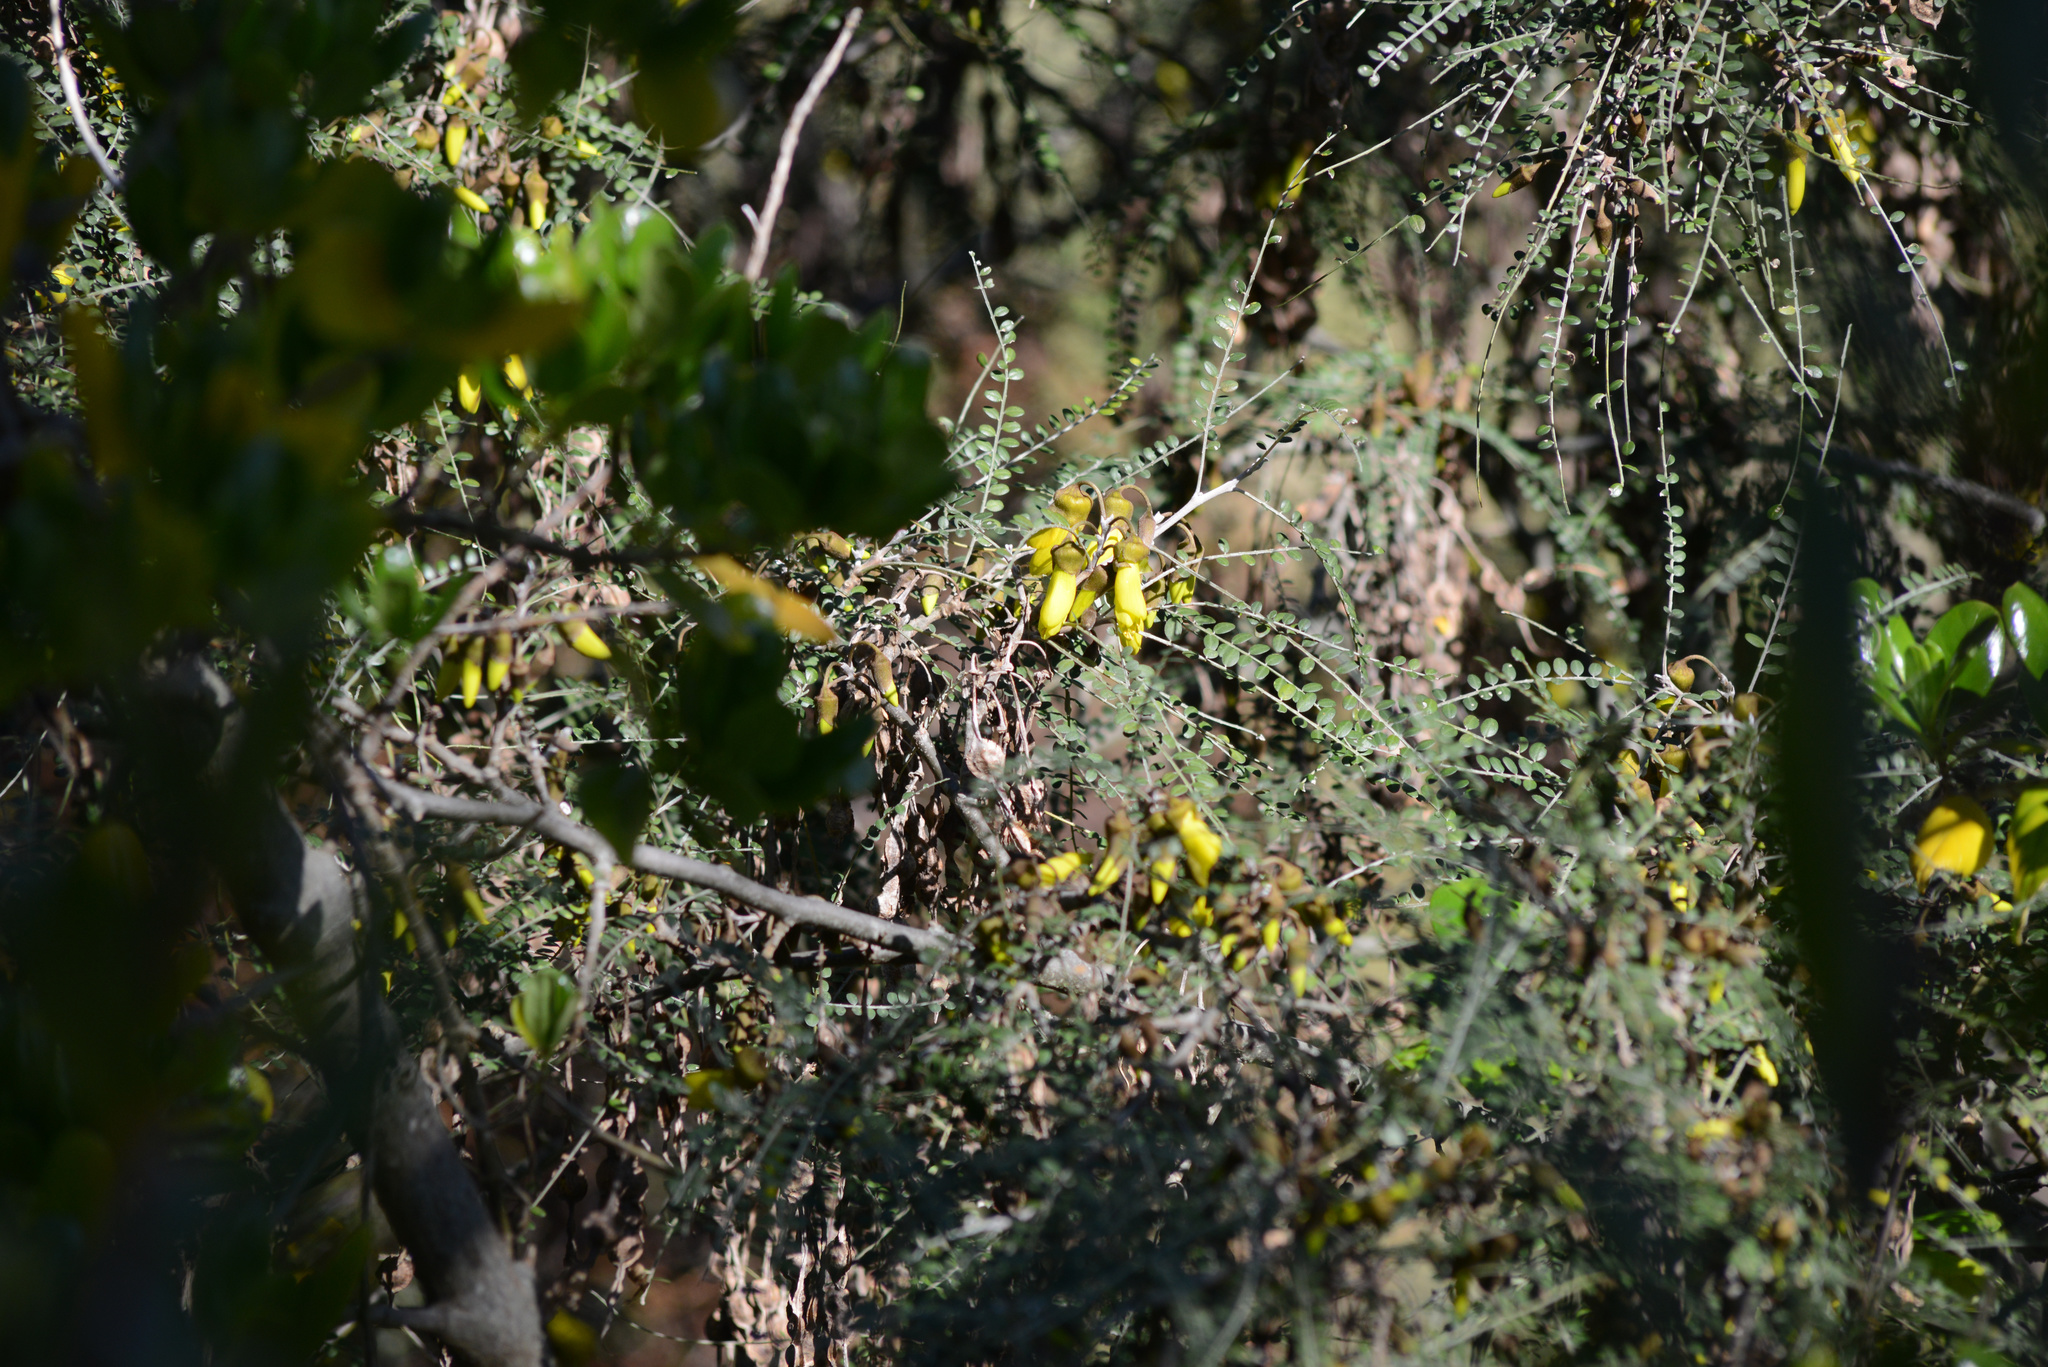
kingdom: Plantae
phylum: Tracheophyta
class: Magnoliopsida
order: Fabales
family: Fabaceae
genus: Sophora
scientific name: Sophora microphylla
